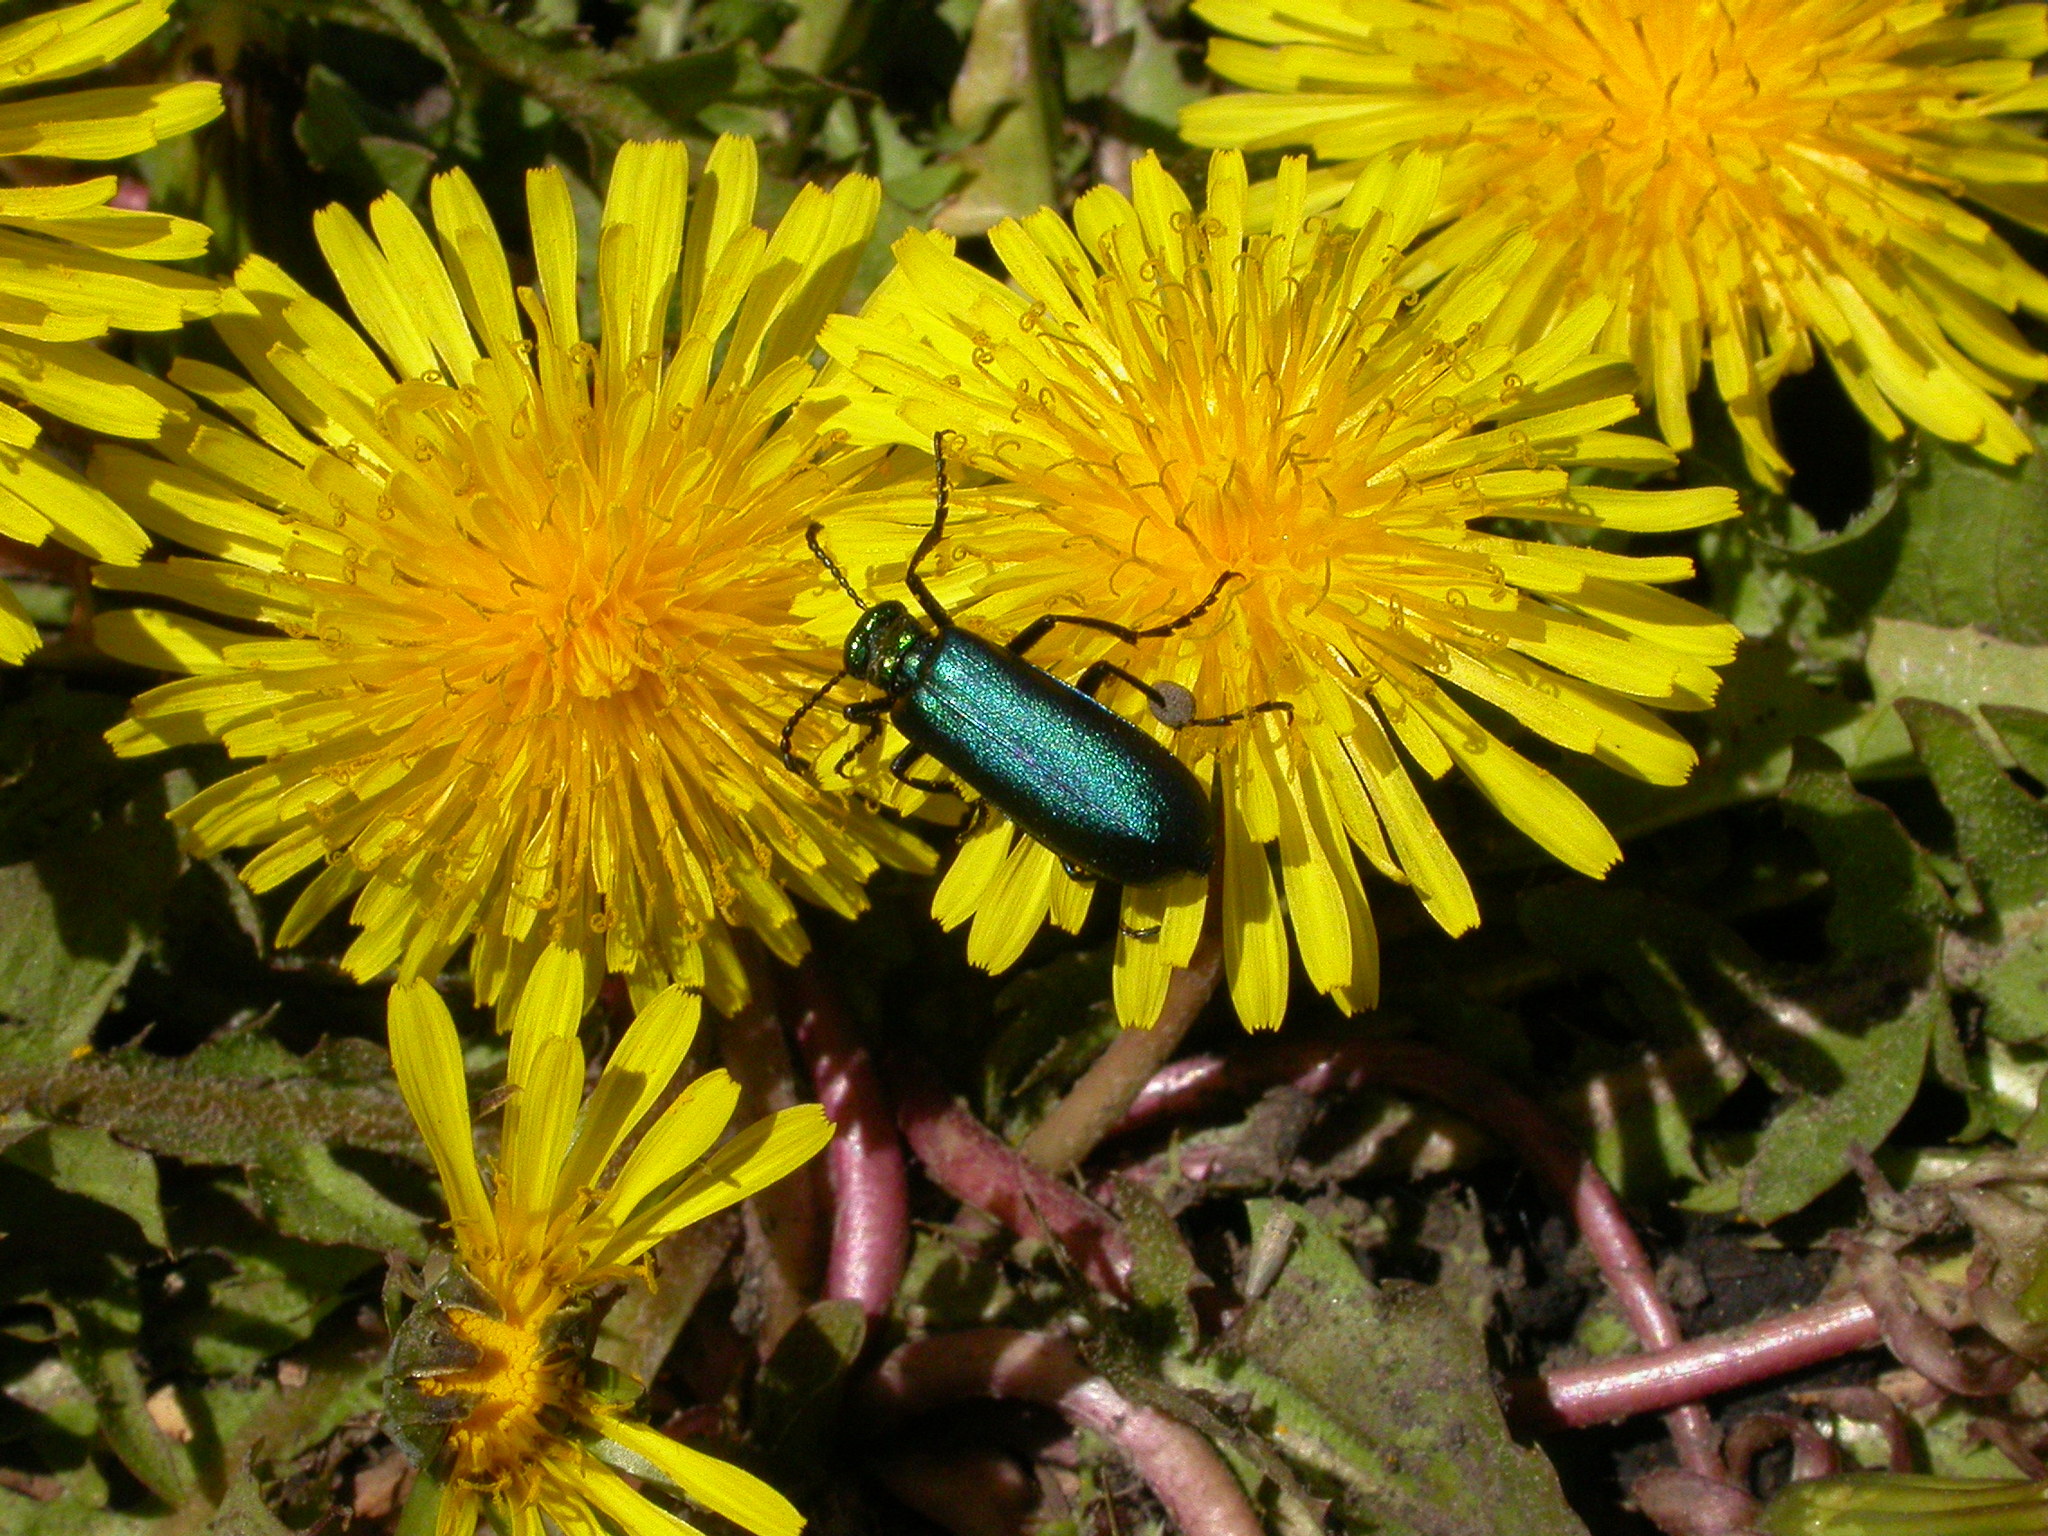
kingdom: Plantae
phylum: Tracheophyta
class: Magnoliopsida
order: Asterales
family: Asteraceae
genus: Taraxacum
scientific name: Taraxacum officinale
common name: Common dandelion
